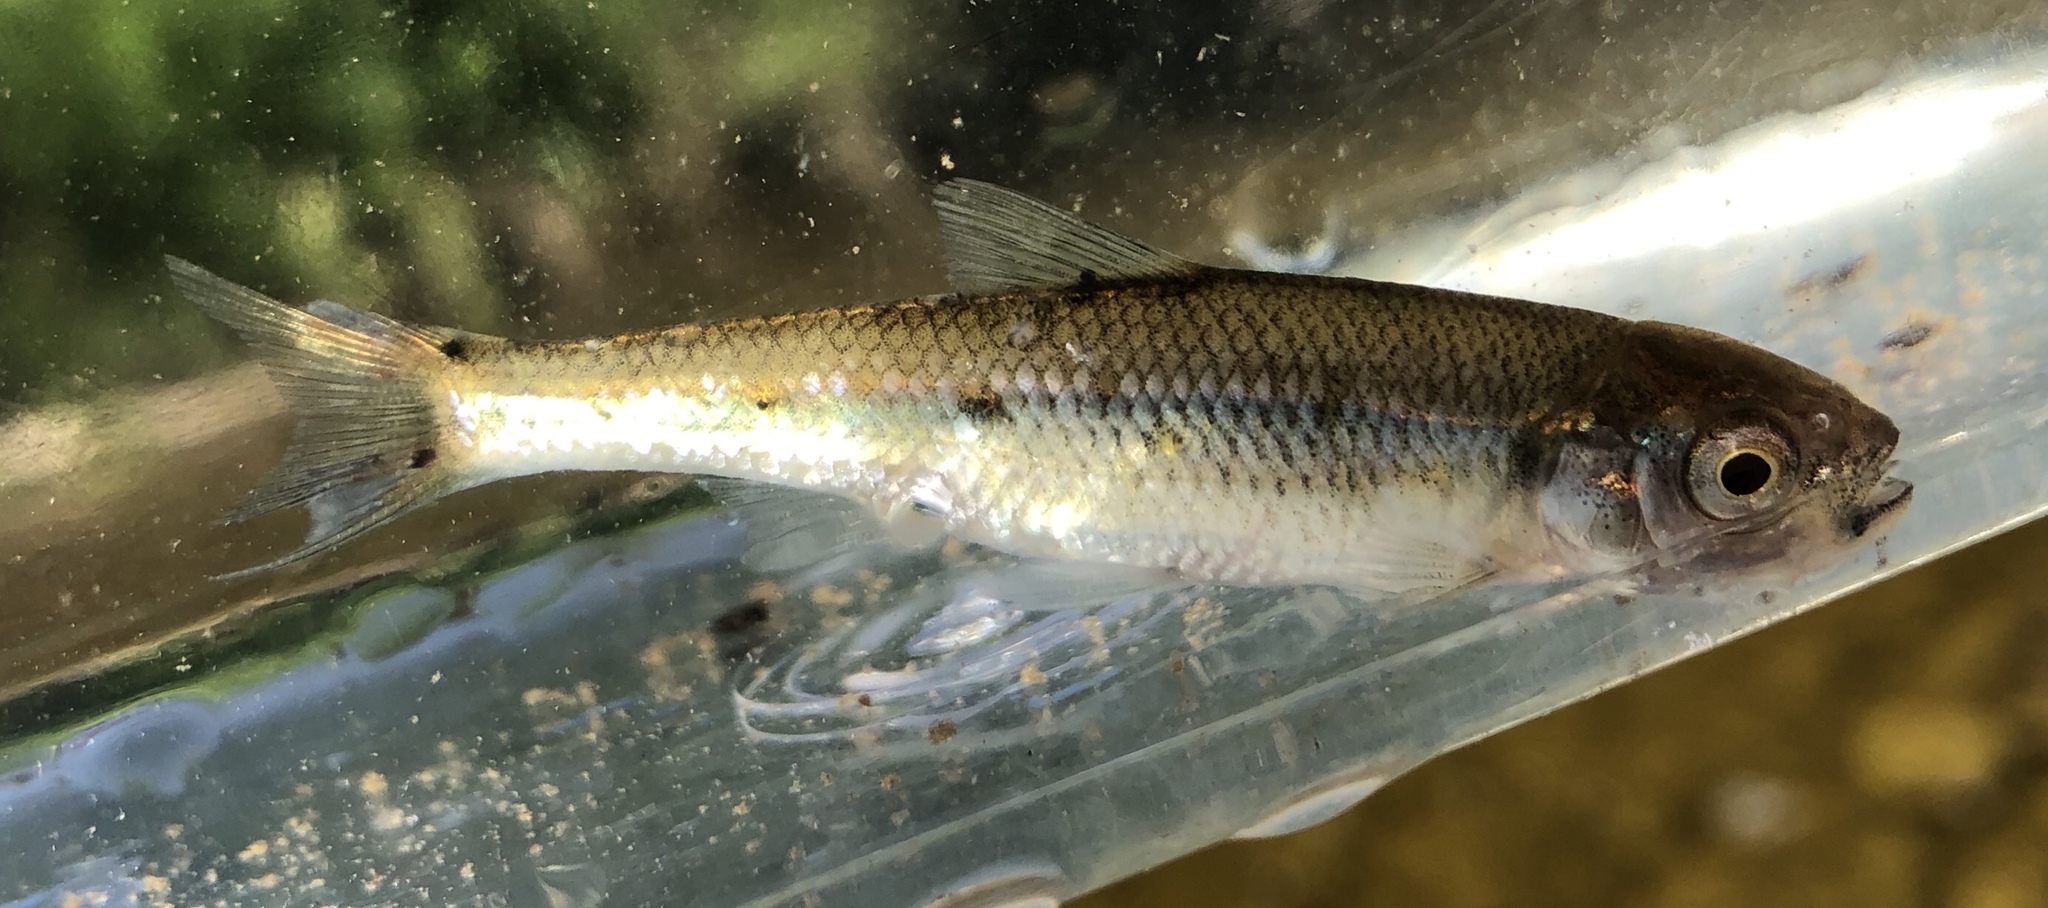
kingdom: Animalia
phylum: Chordata
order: Cypriniformes
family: Cyprinidae
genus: Luxilus
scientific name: Luxilus cornutus
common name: Common shiner
